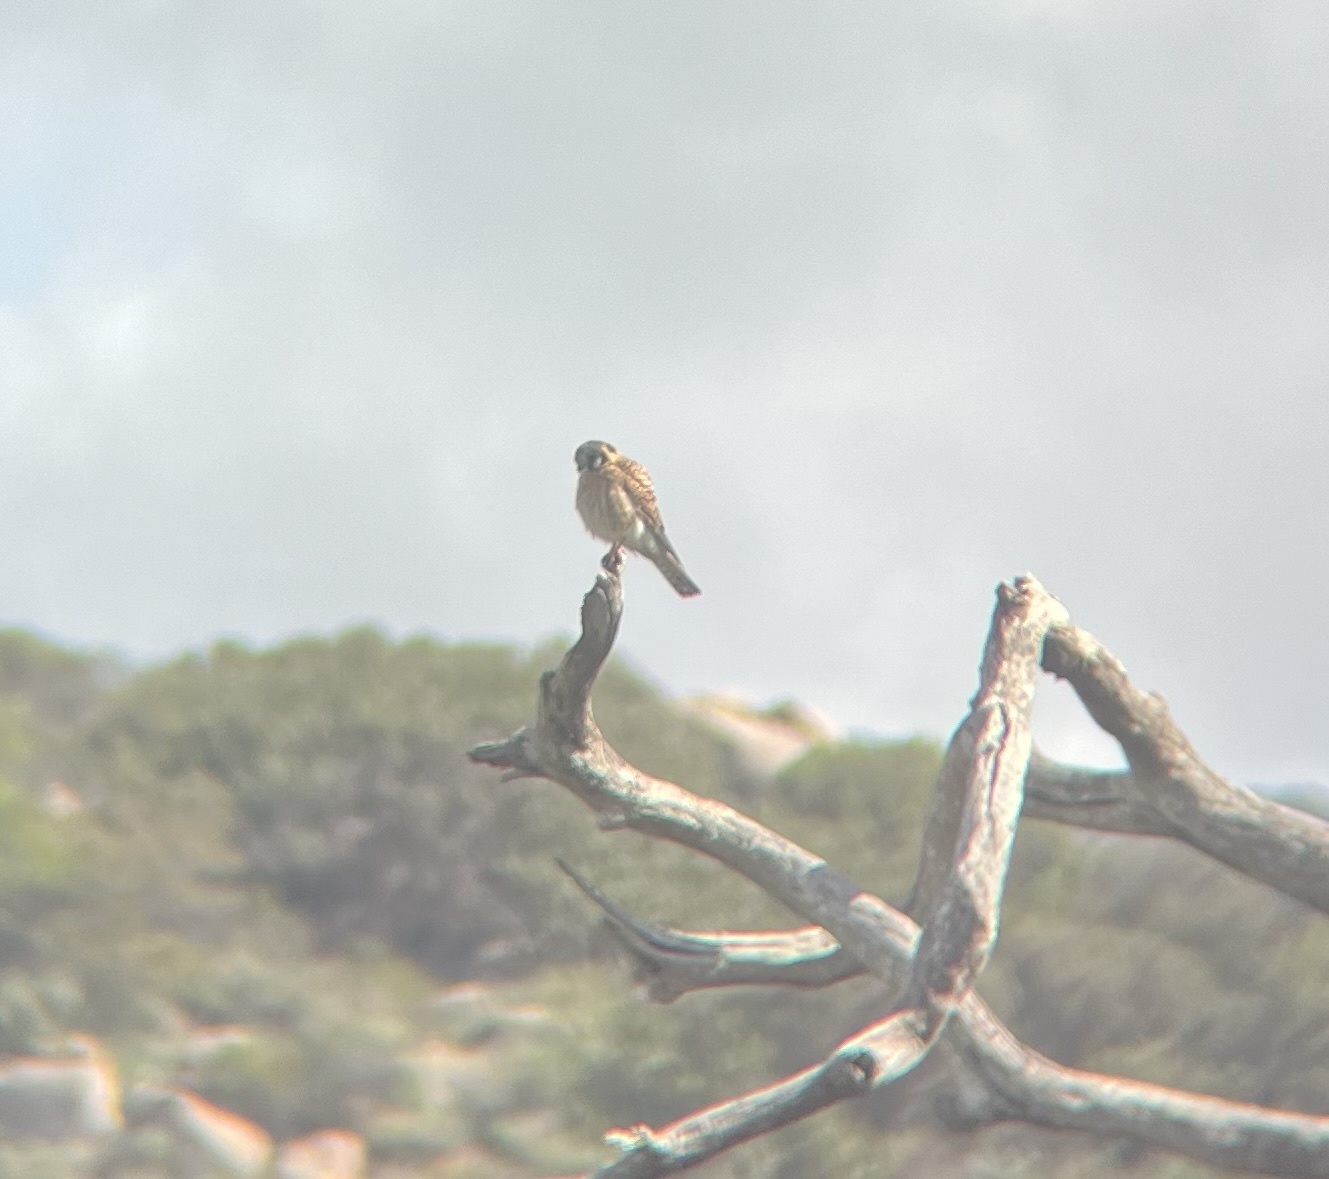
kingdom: Animalia
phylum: Chordata
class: Aves
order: Falconiformes
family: Falconidae
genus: Falco
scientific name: Falco sparverius
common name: American kestrel
